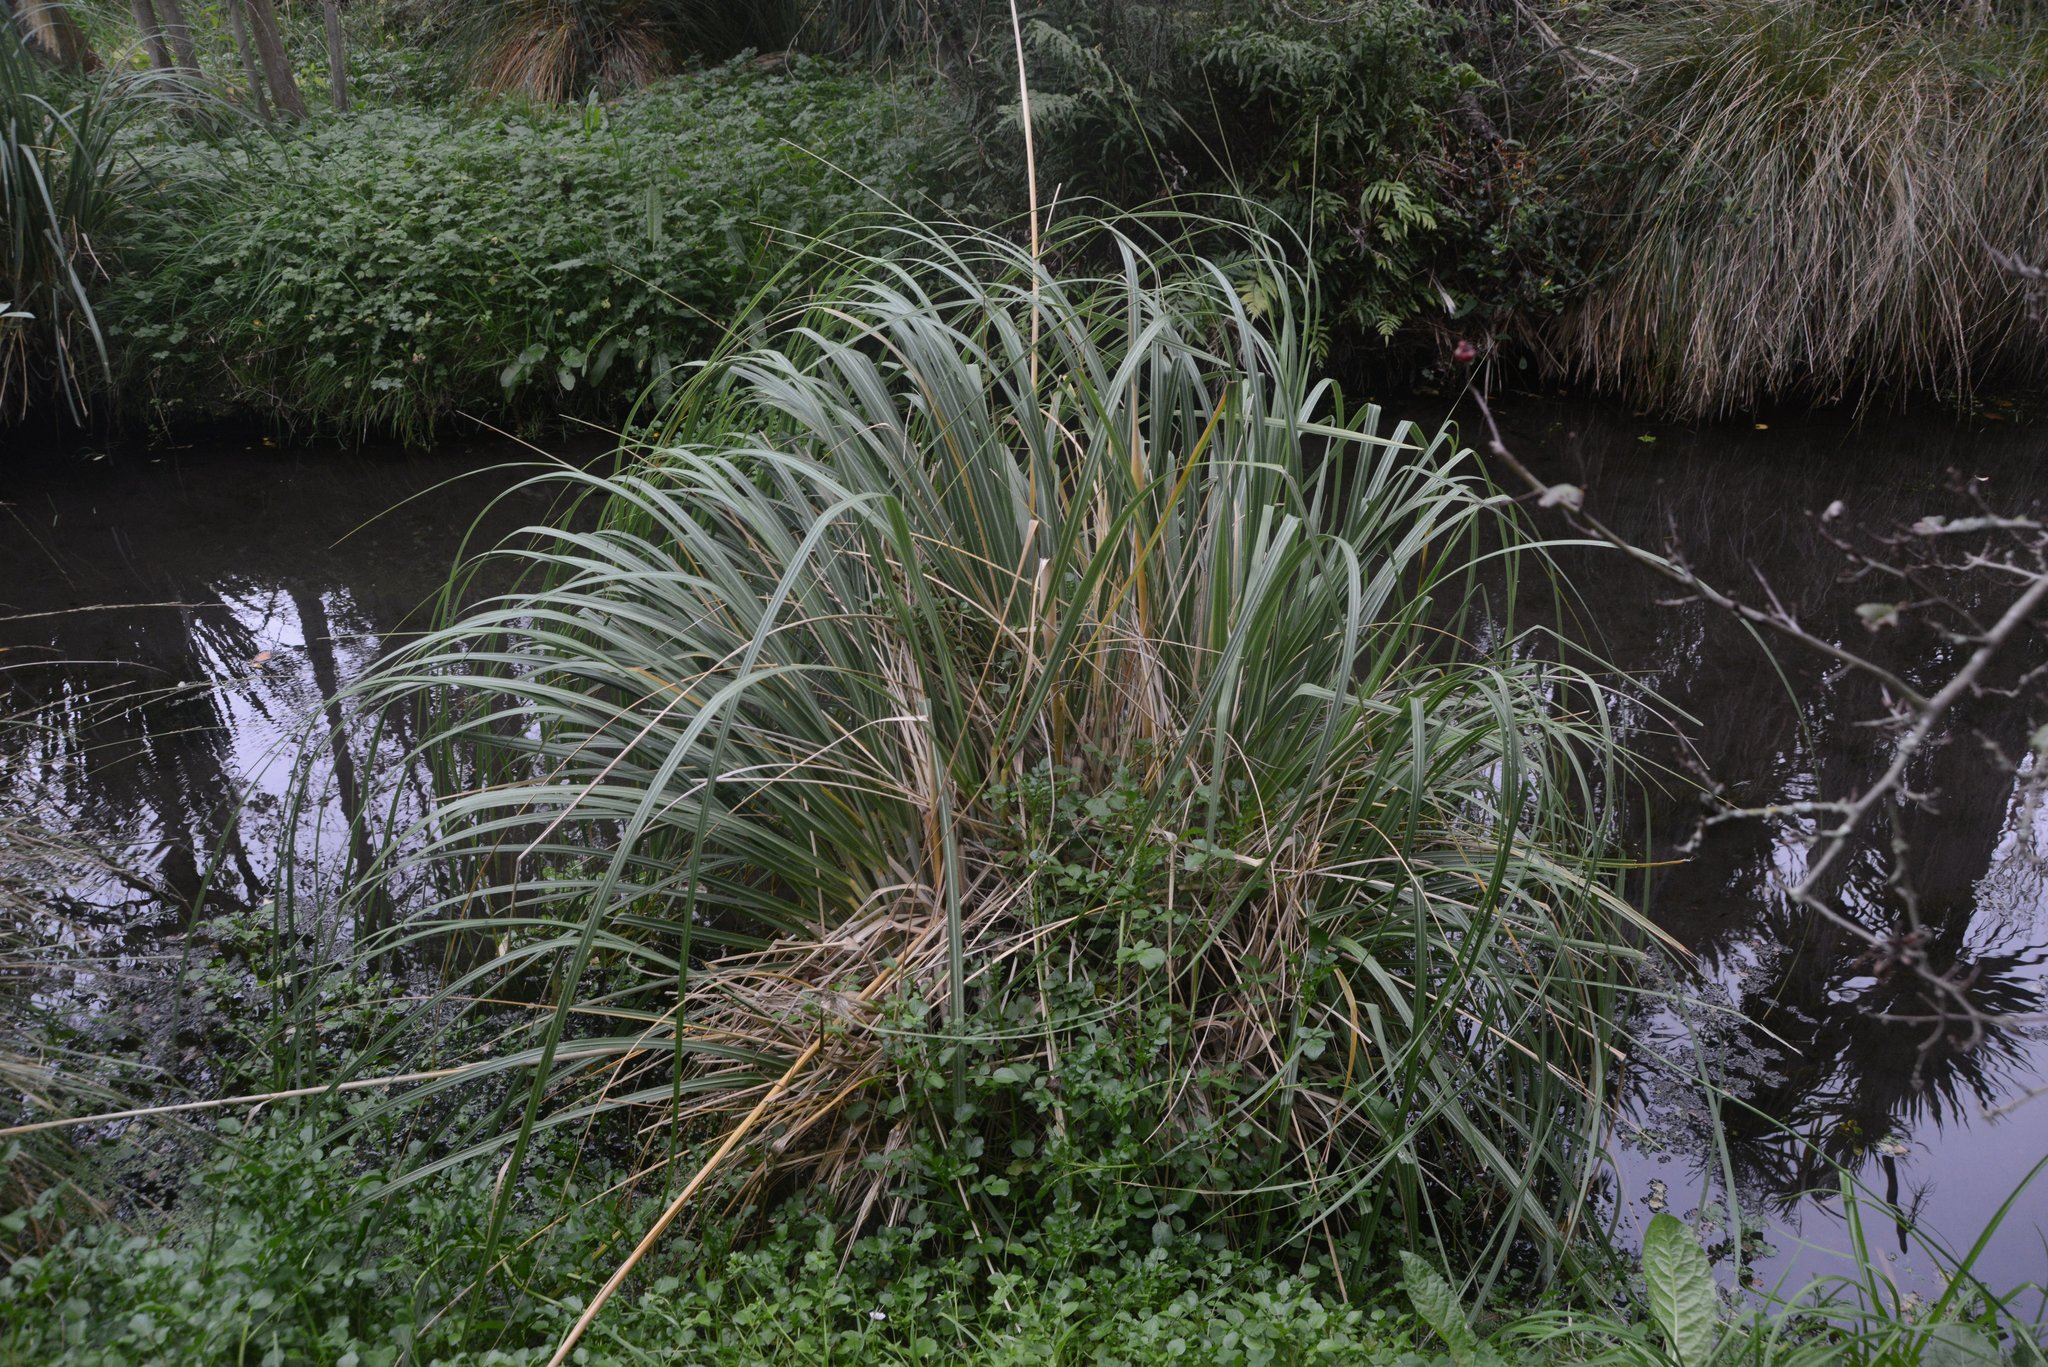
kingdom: Plantae
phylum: Tracheophyta
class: Liliopsida
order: Poales
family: Poaceae
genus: Cortaderia
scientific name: Cortaderia selloana
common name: Uruguayan pampas grass
